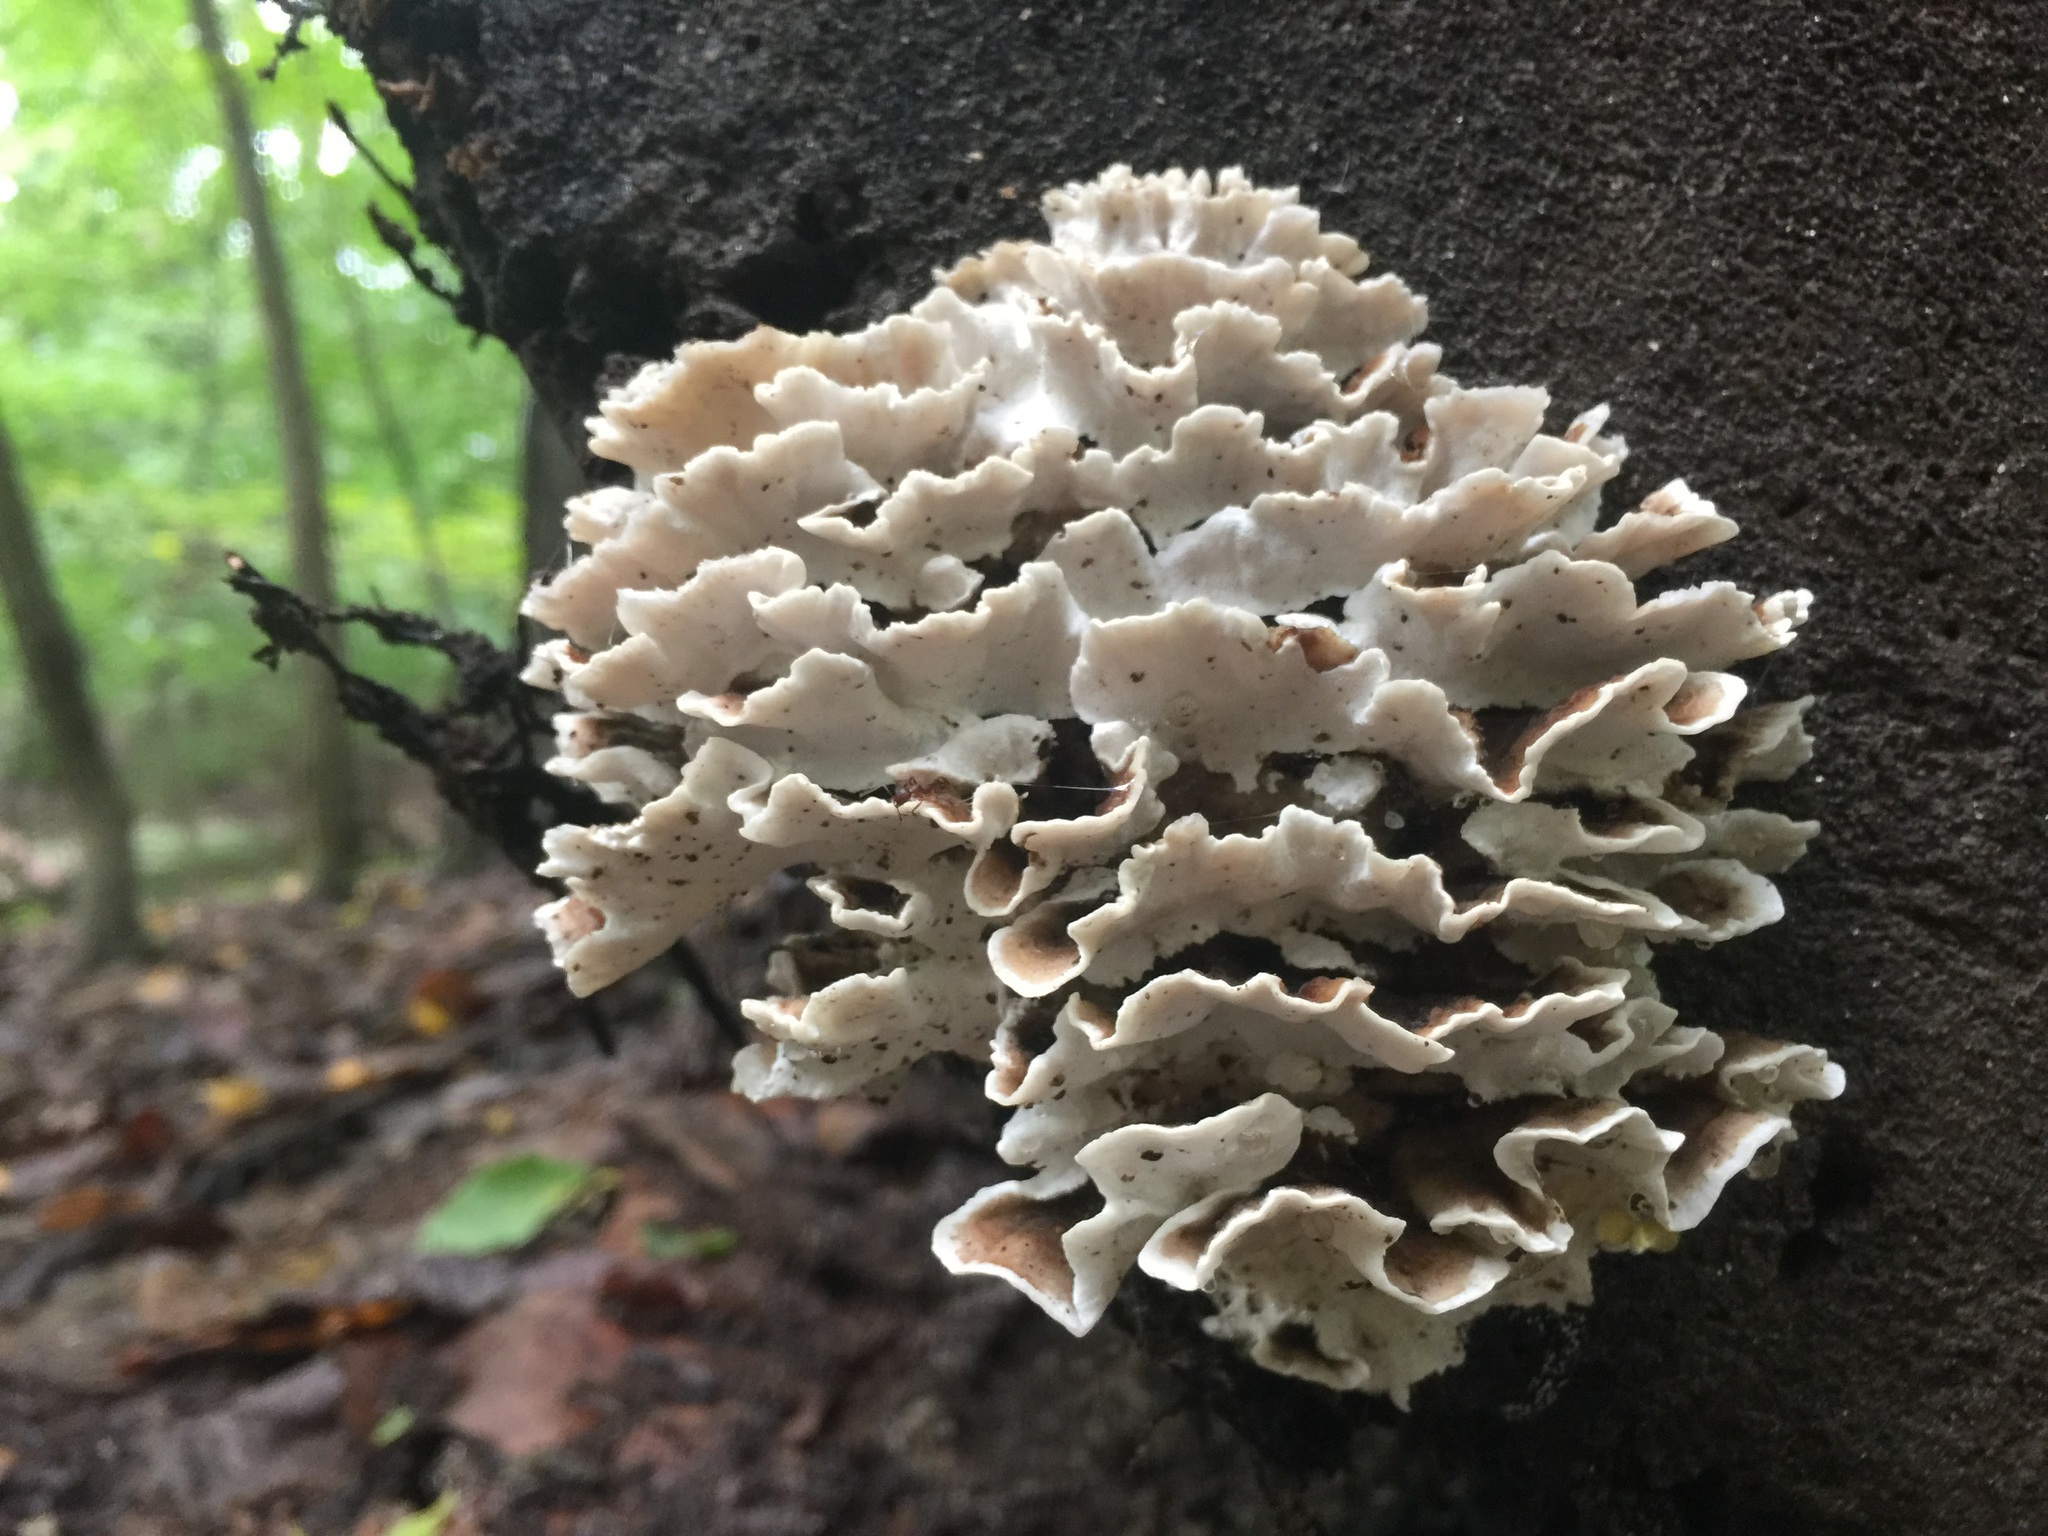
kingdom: Fungi
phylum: Basidiomycota
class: Agaricomycetes
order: Polyporales
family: Polyporaceae
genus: Trametes
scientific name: Trametes versicolor
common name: Turkeytail
